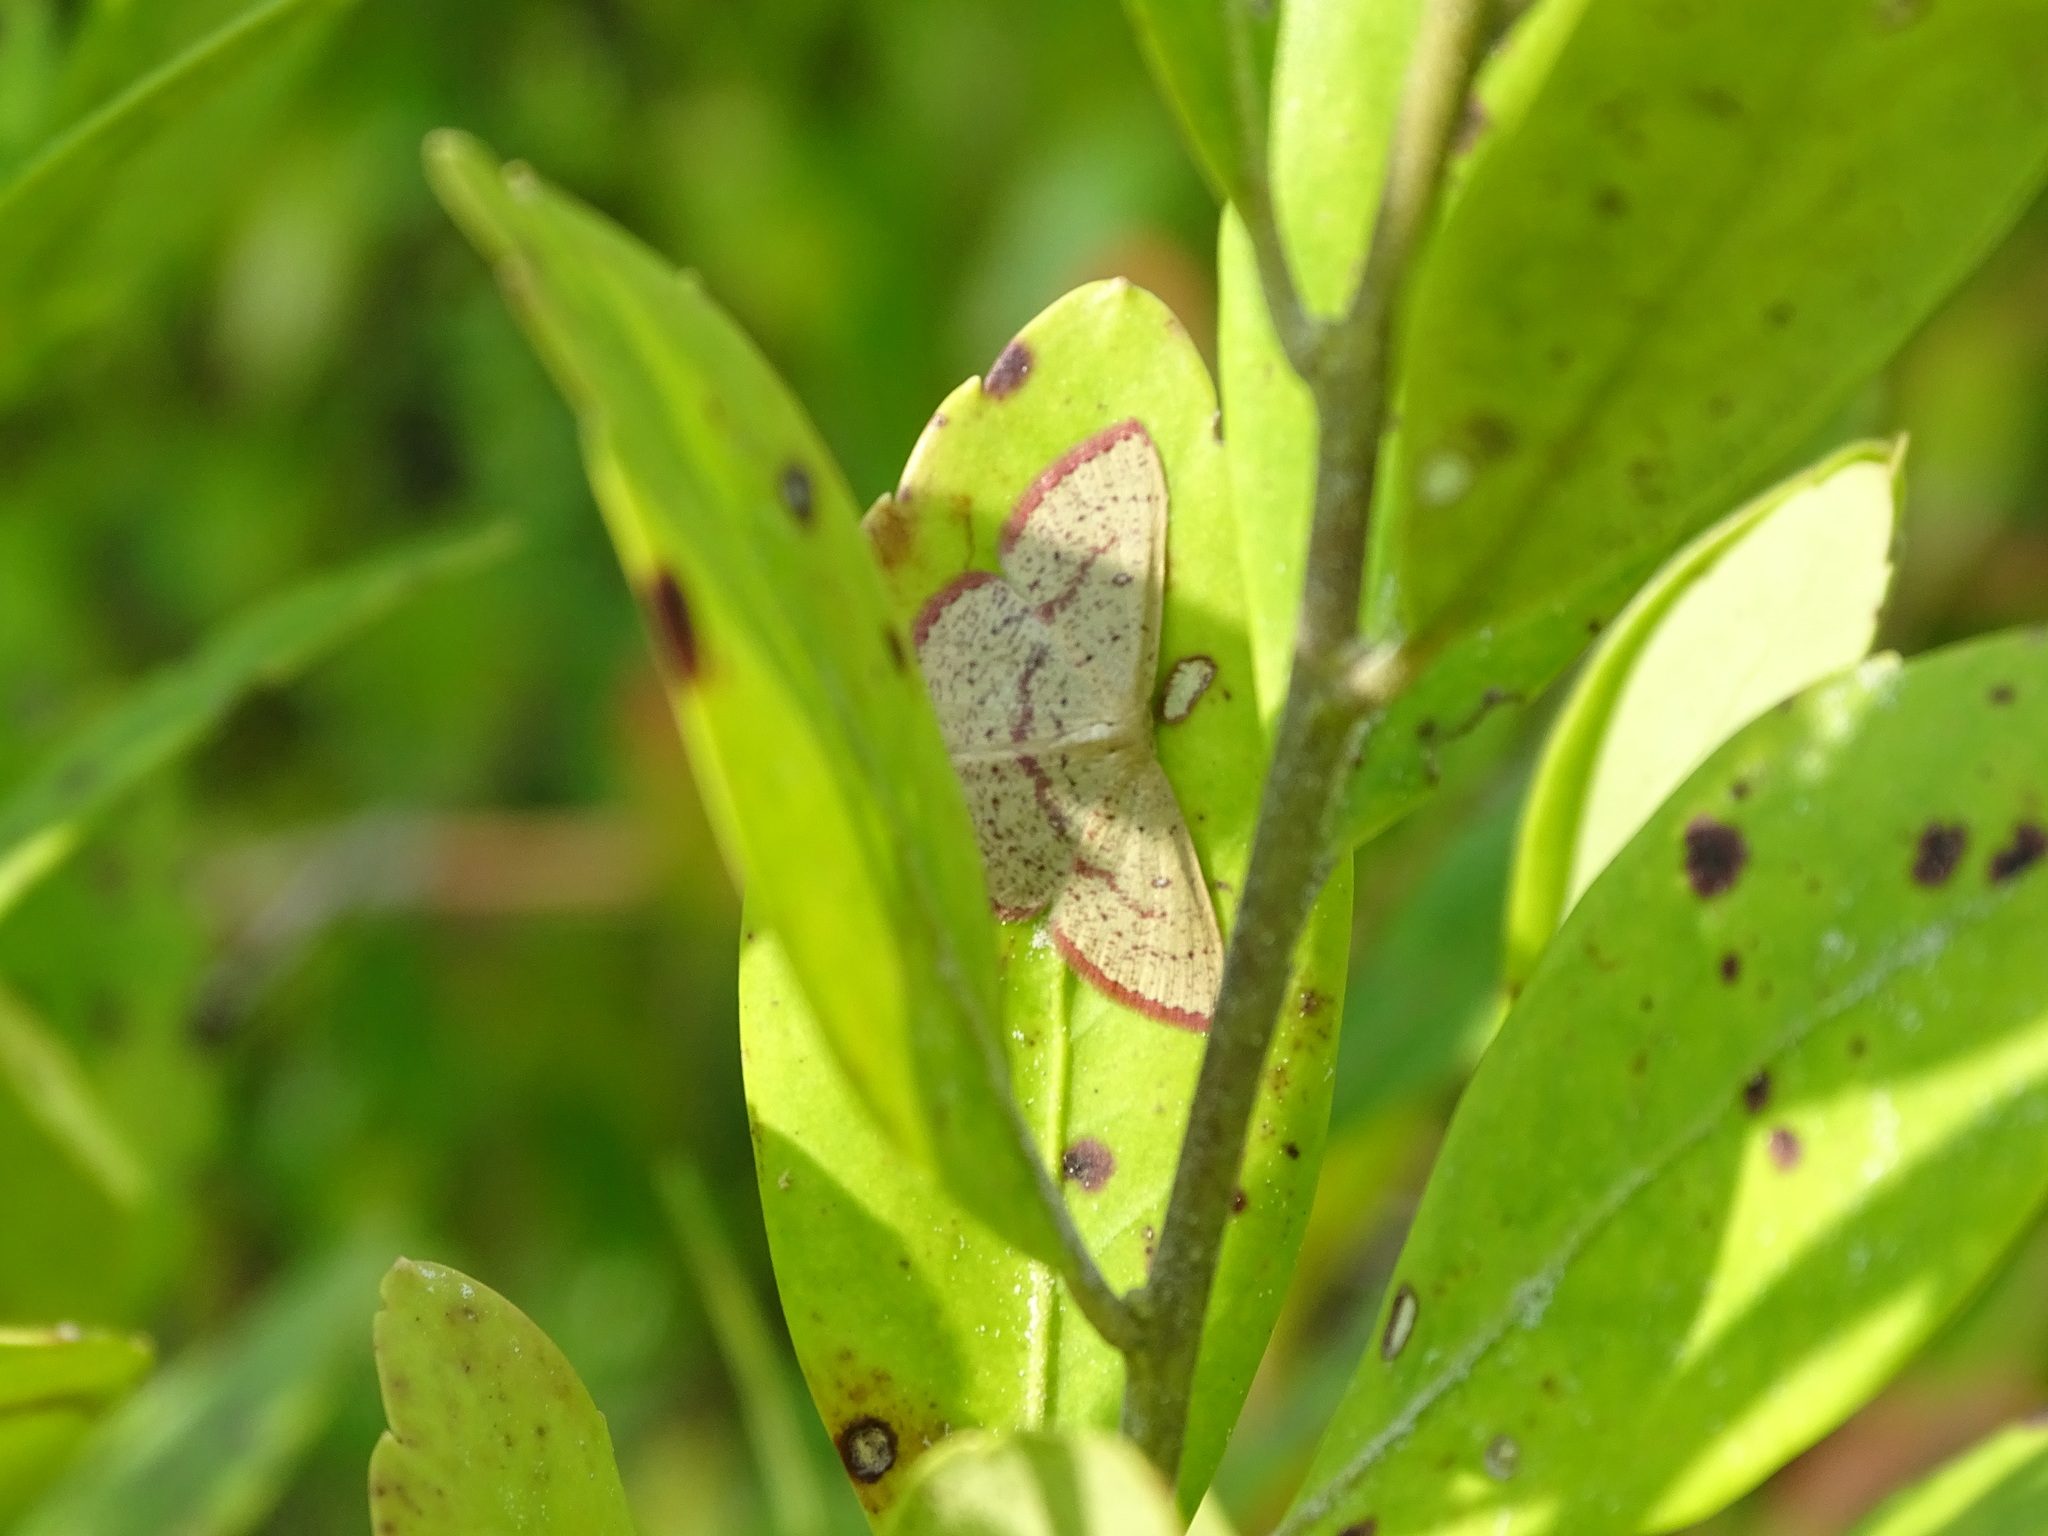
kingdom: Animalia
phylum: Arthropoda
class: Insecta
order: Lepidoptera
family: Geometridae
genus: Cyclophora
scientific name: Cyclophora culicaria
